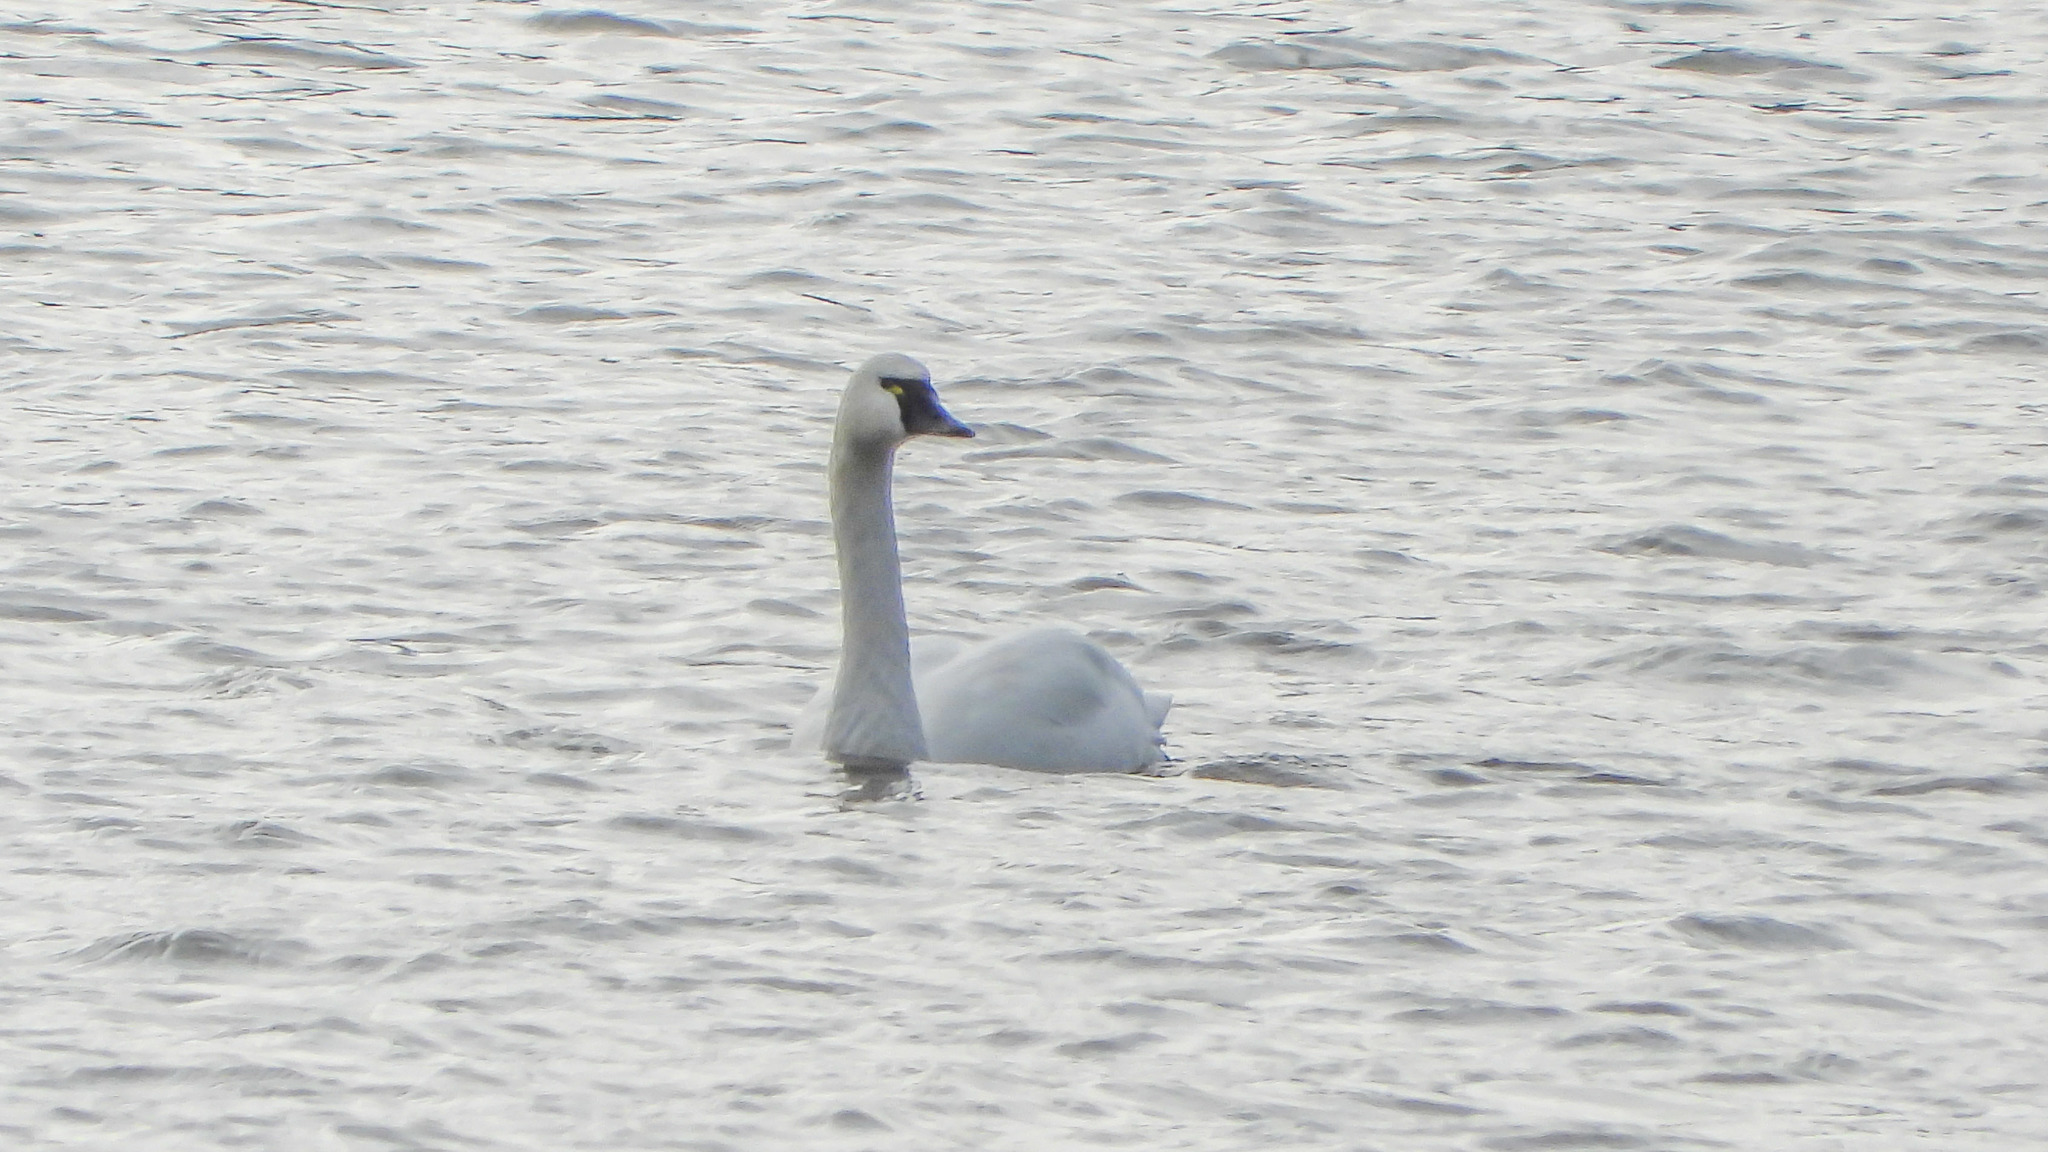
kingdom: Animalia
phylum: Chordata
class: Aves
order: Anseriformes
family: Anatidae
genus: Cygnus
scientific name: Cygnus columbianus
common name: Tundra swan
